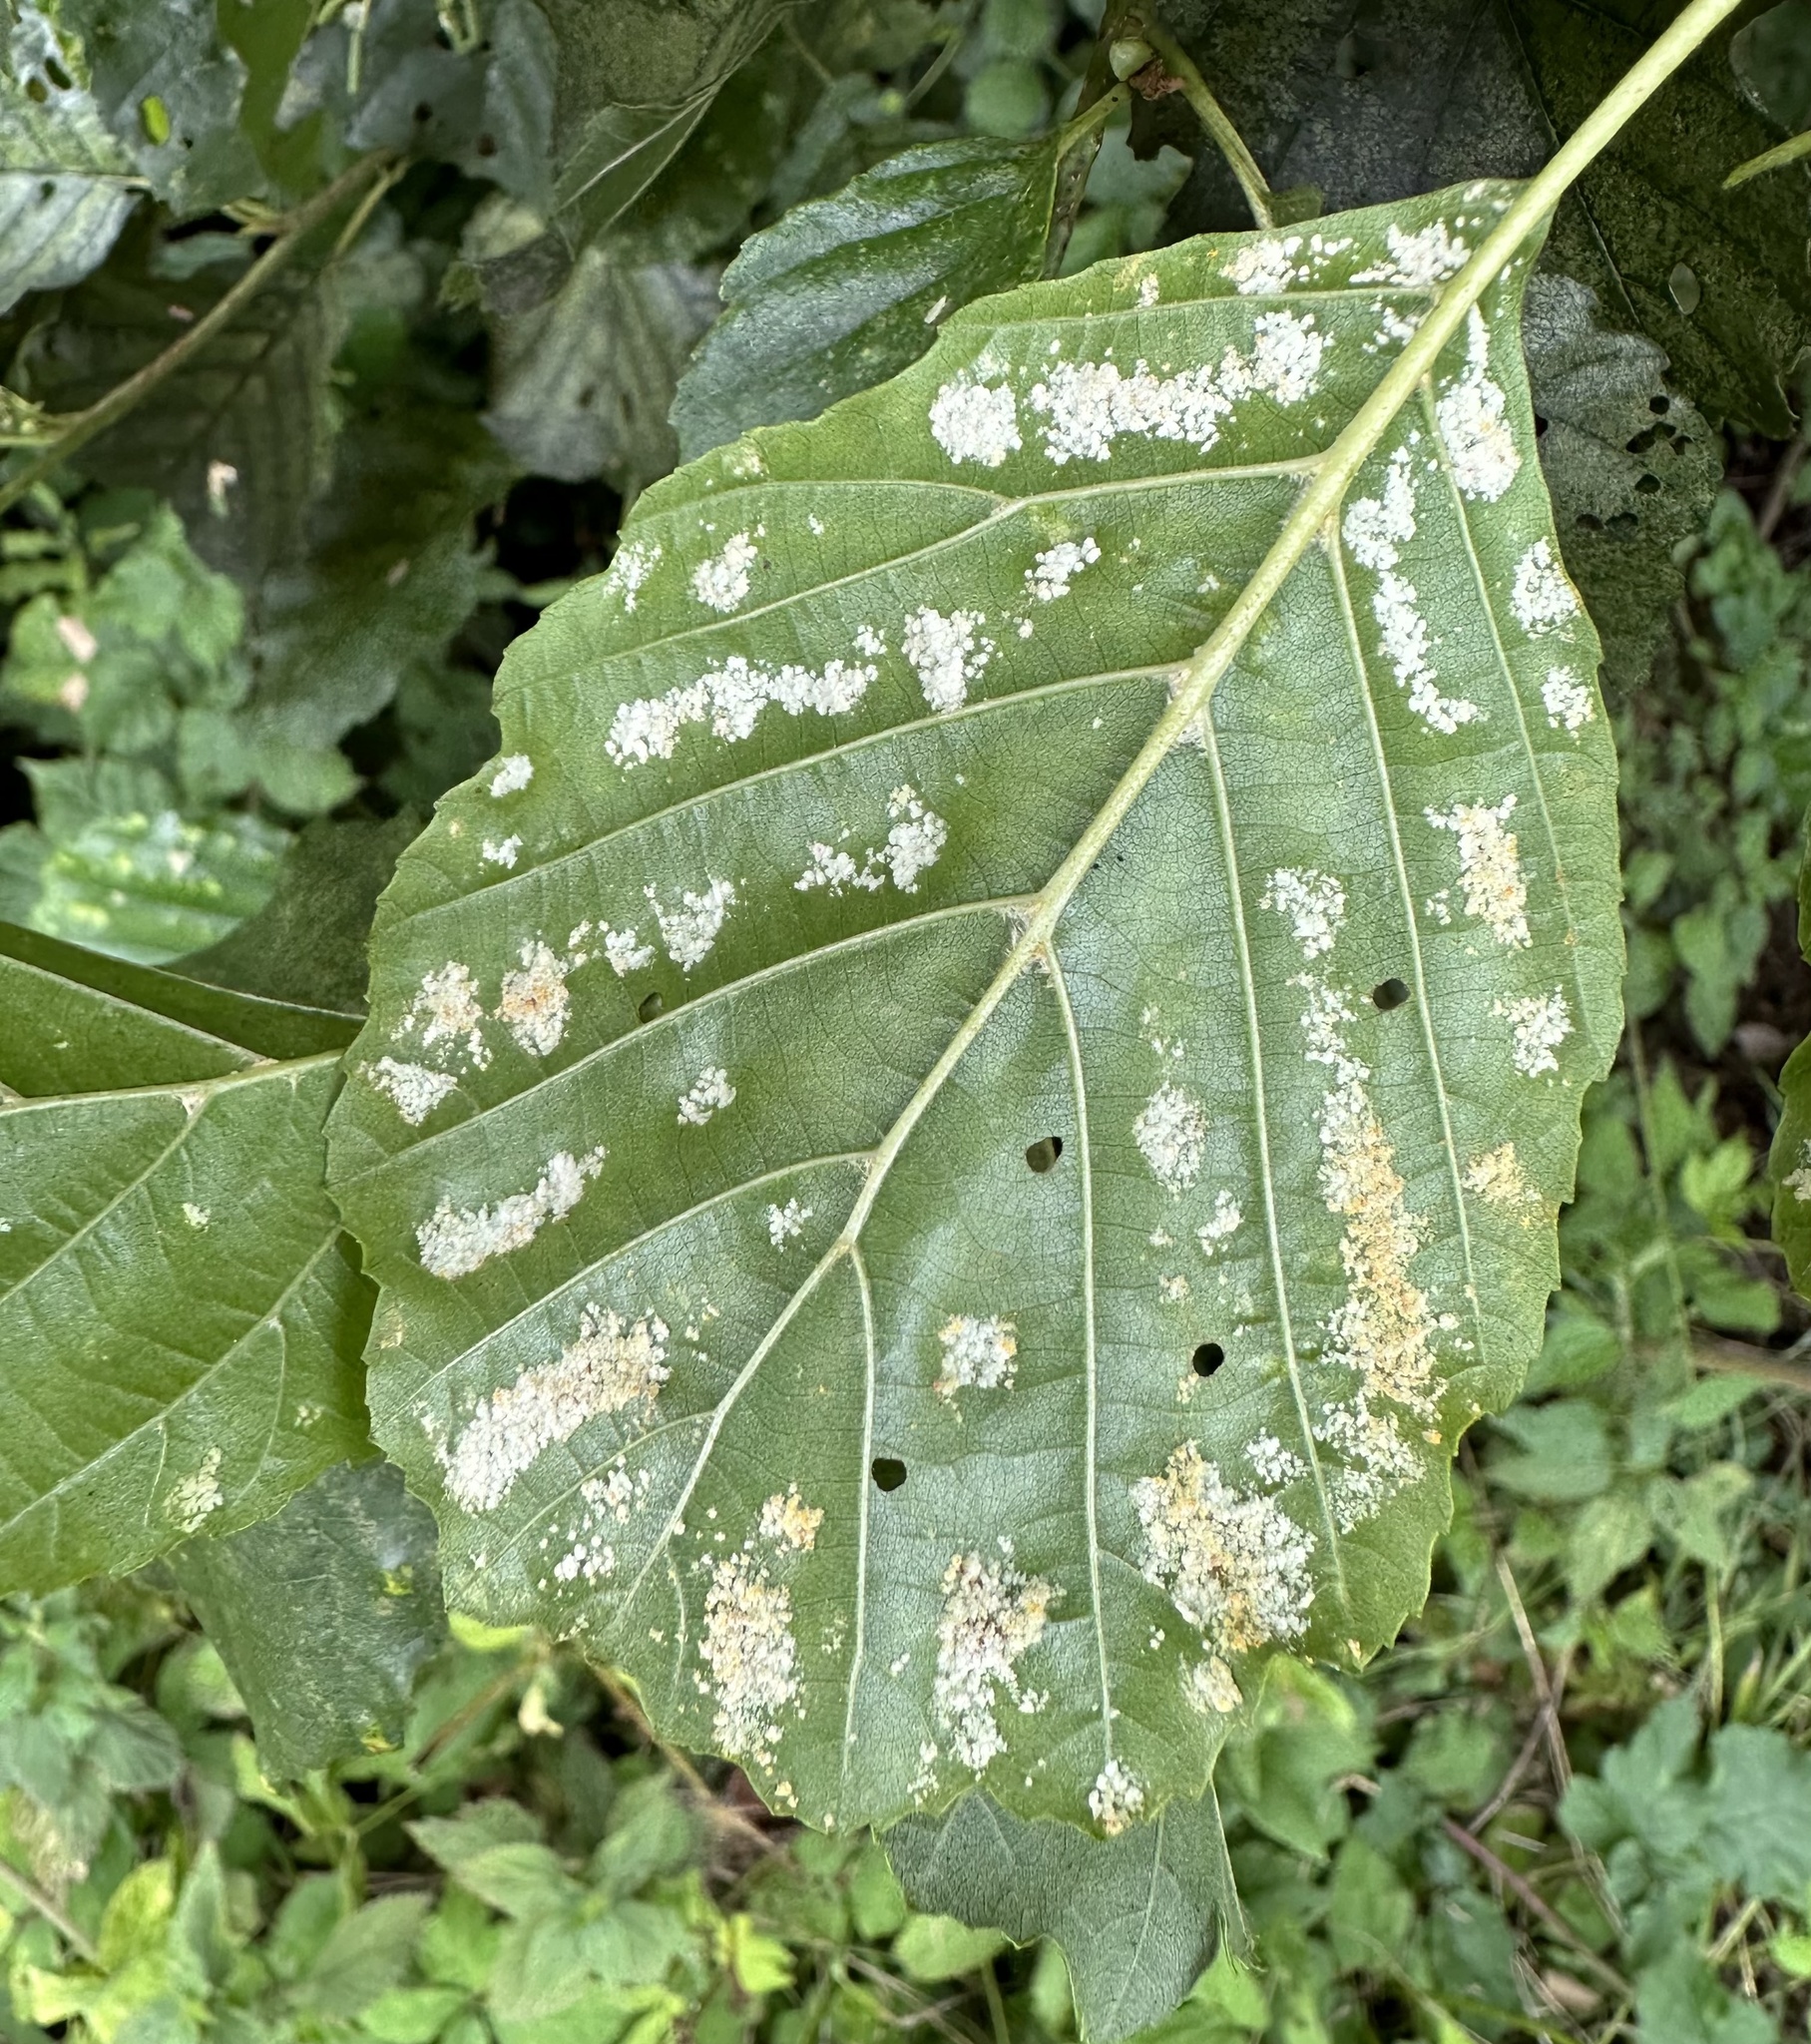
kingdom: Animalia
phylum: Arthropoda
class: Arachnida
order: Trombidiformes
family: Eriophyidae
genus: Acalitus
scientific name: Acalitus brevitarsus
